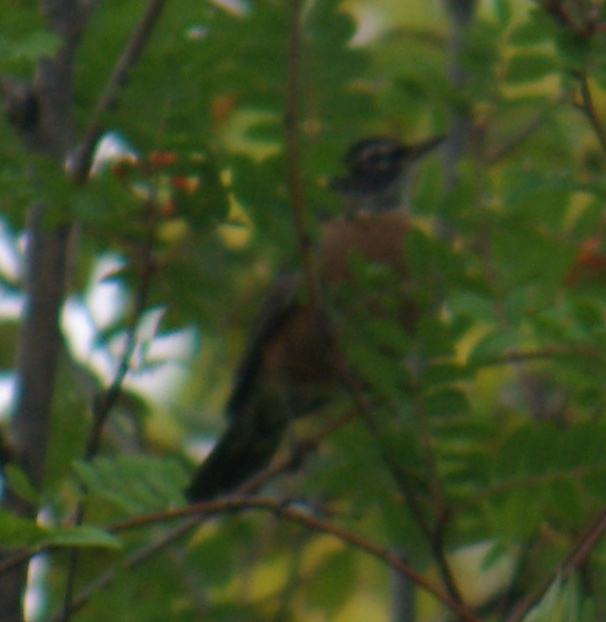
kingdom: Animalia
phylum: Chordata
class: Aves
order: Passeriformes
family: Turdidae
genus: Turdus
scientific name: Turdus migratorius
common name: American robin
